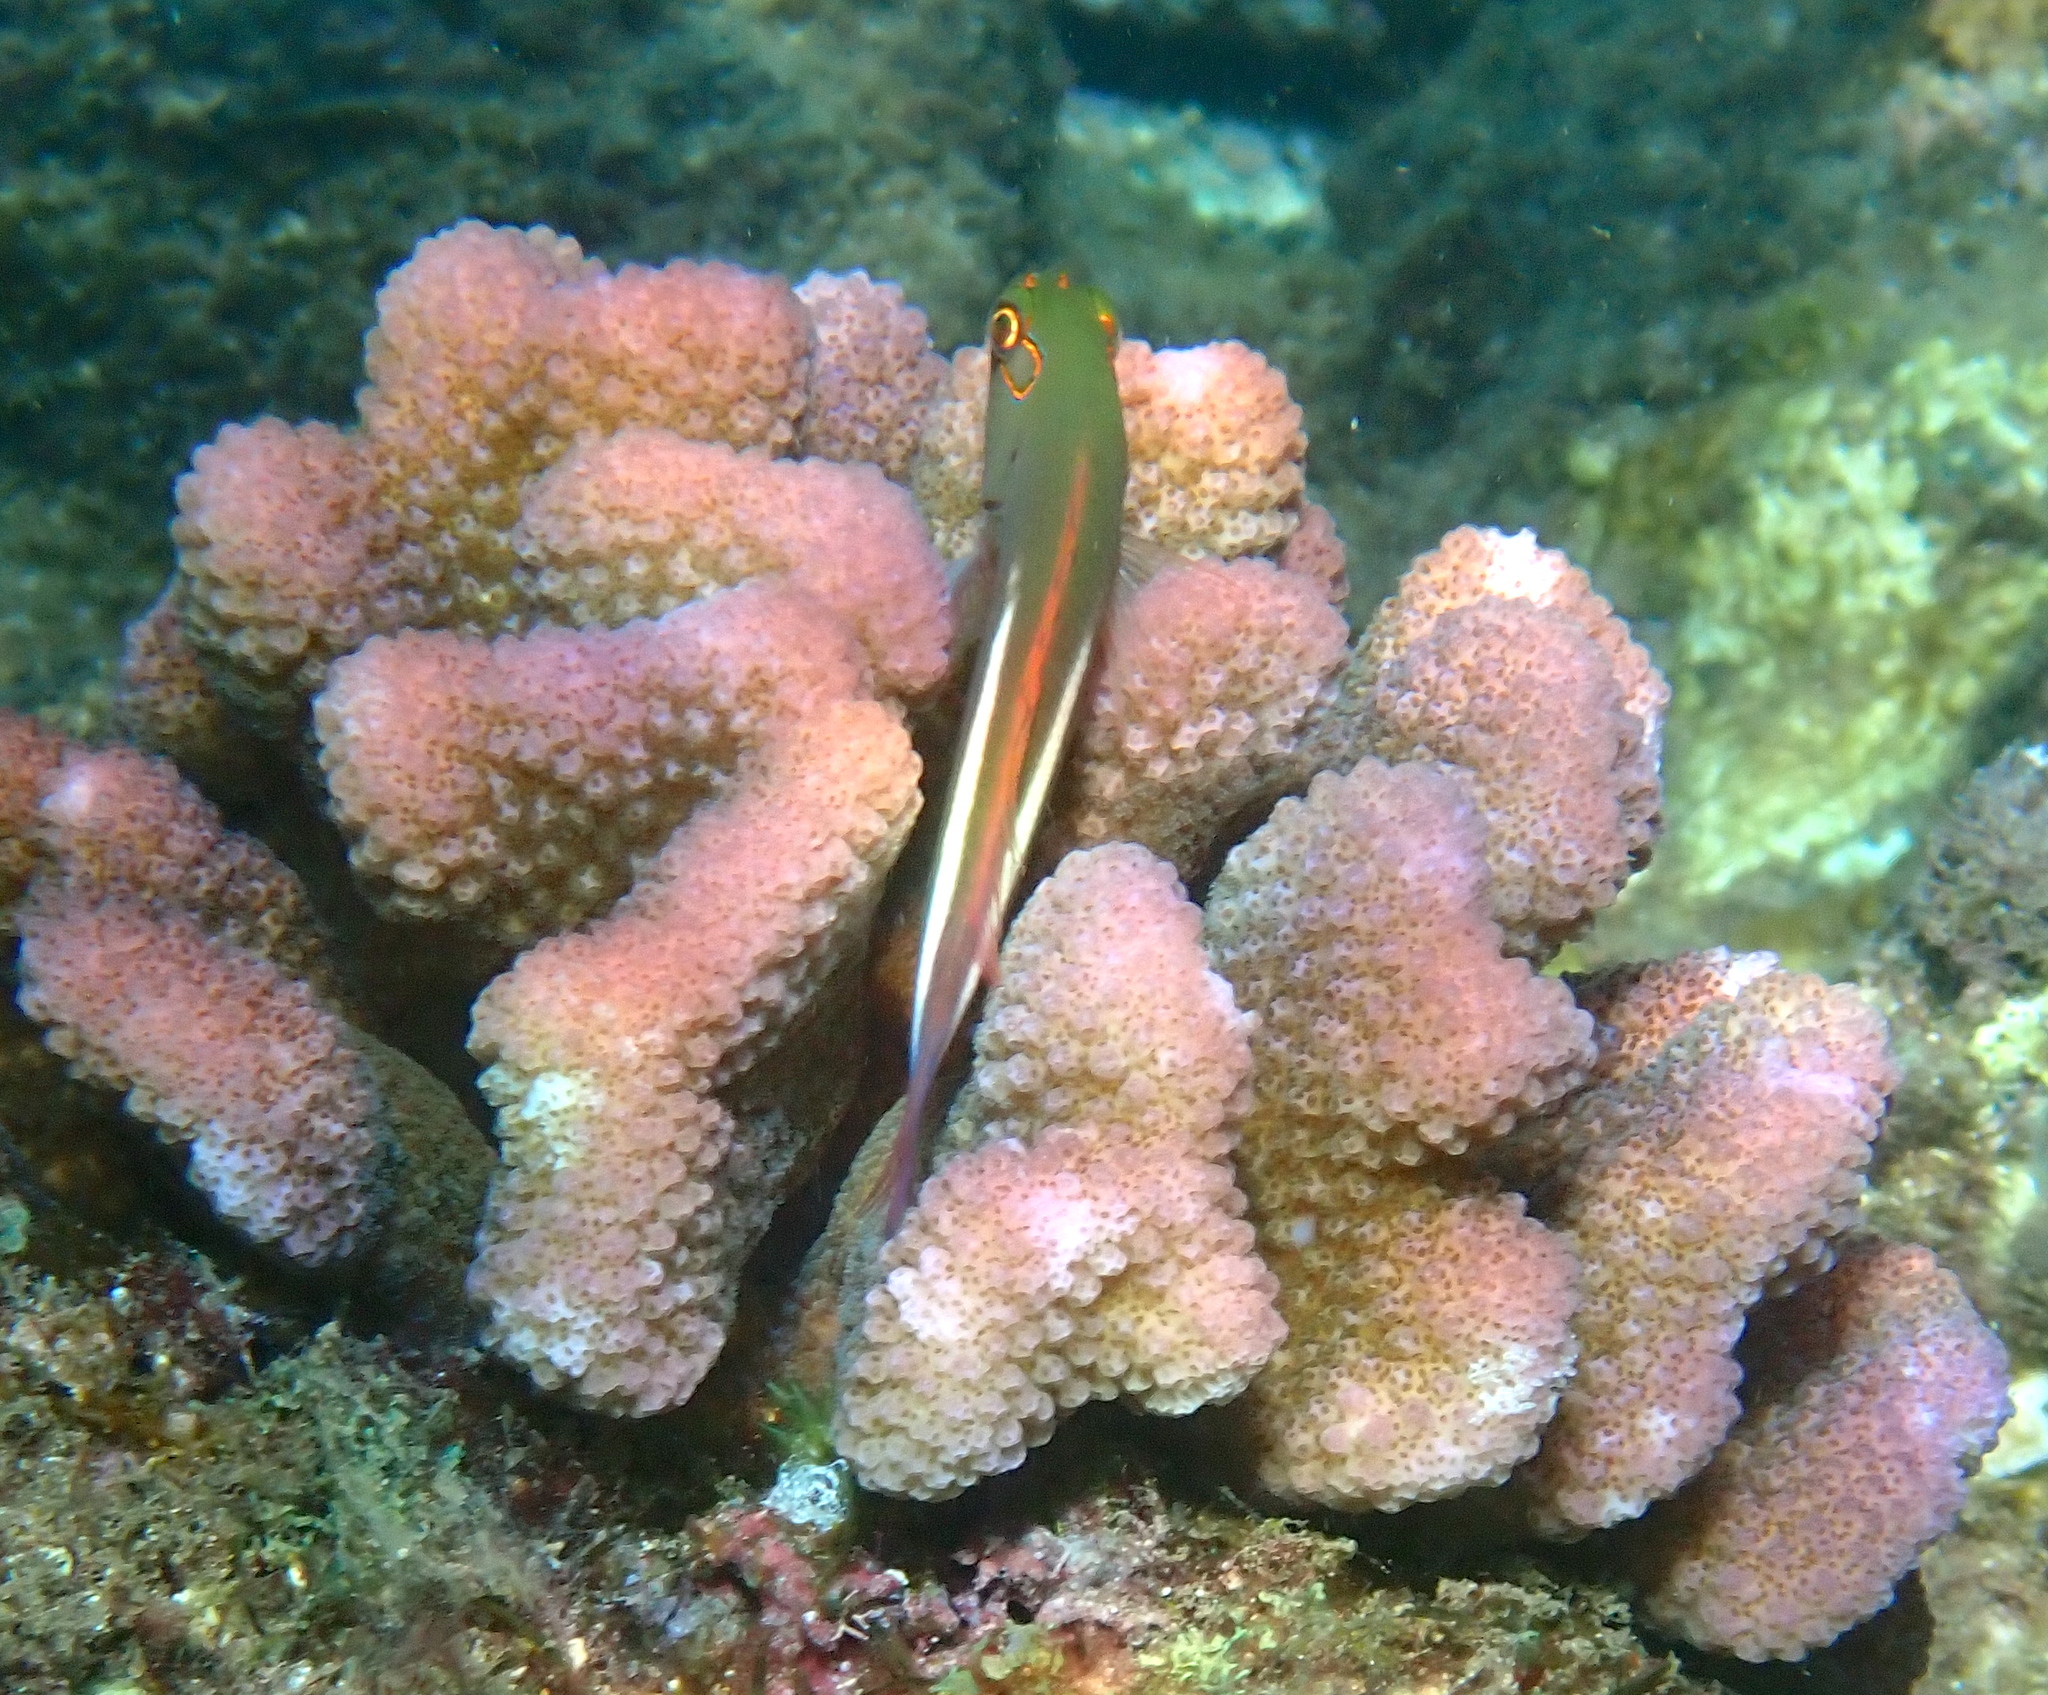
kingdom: Animalia
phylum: Chordata
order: Perciformes
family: Cirrhitidae
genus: Paracirrhites
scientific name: Paracirrhites arcatus
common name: Arc-eye hawkfish
